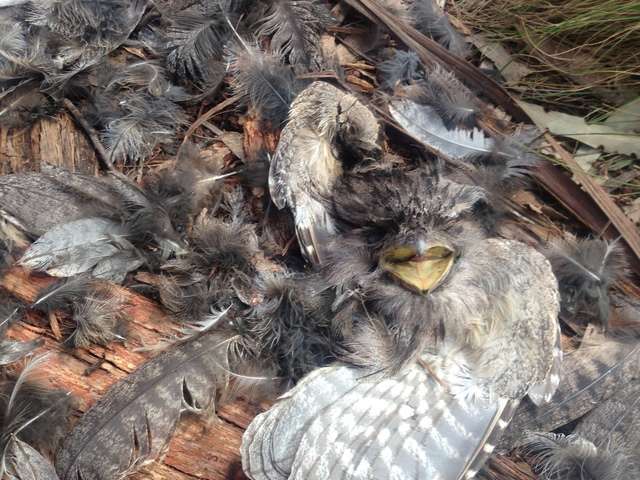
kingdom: Animalia
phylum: Chordata
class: Aves
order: Caprimulgiformes
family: Podargidae
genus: Podargus
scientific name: Podargus strigoides
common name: Tawny frogmouth
